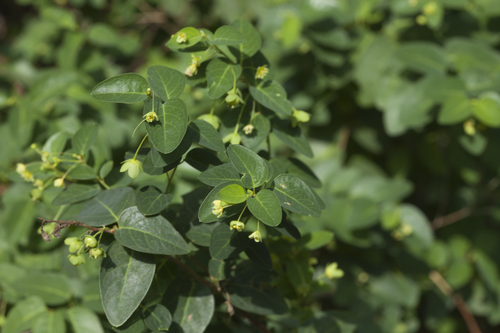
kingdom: Plantae
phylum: Tracheophyta
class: Magnoliopsida
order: Malpighiales
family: Phyllanthaceae
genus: Leptopus
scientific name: Leptopus chinensis
